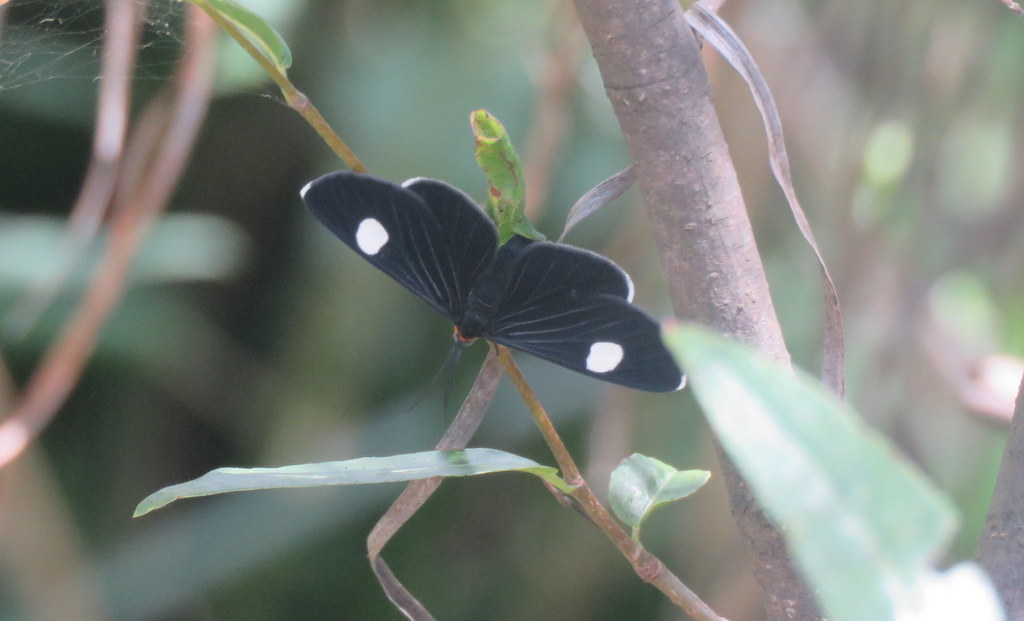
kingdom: Animalia
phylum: Arthropoda
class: Insecta
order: Lepidoptera
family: Geometridae
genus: Melanchroia
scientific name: Melanchroia aterea
